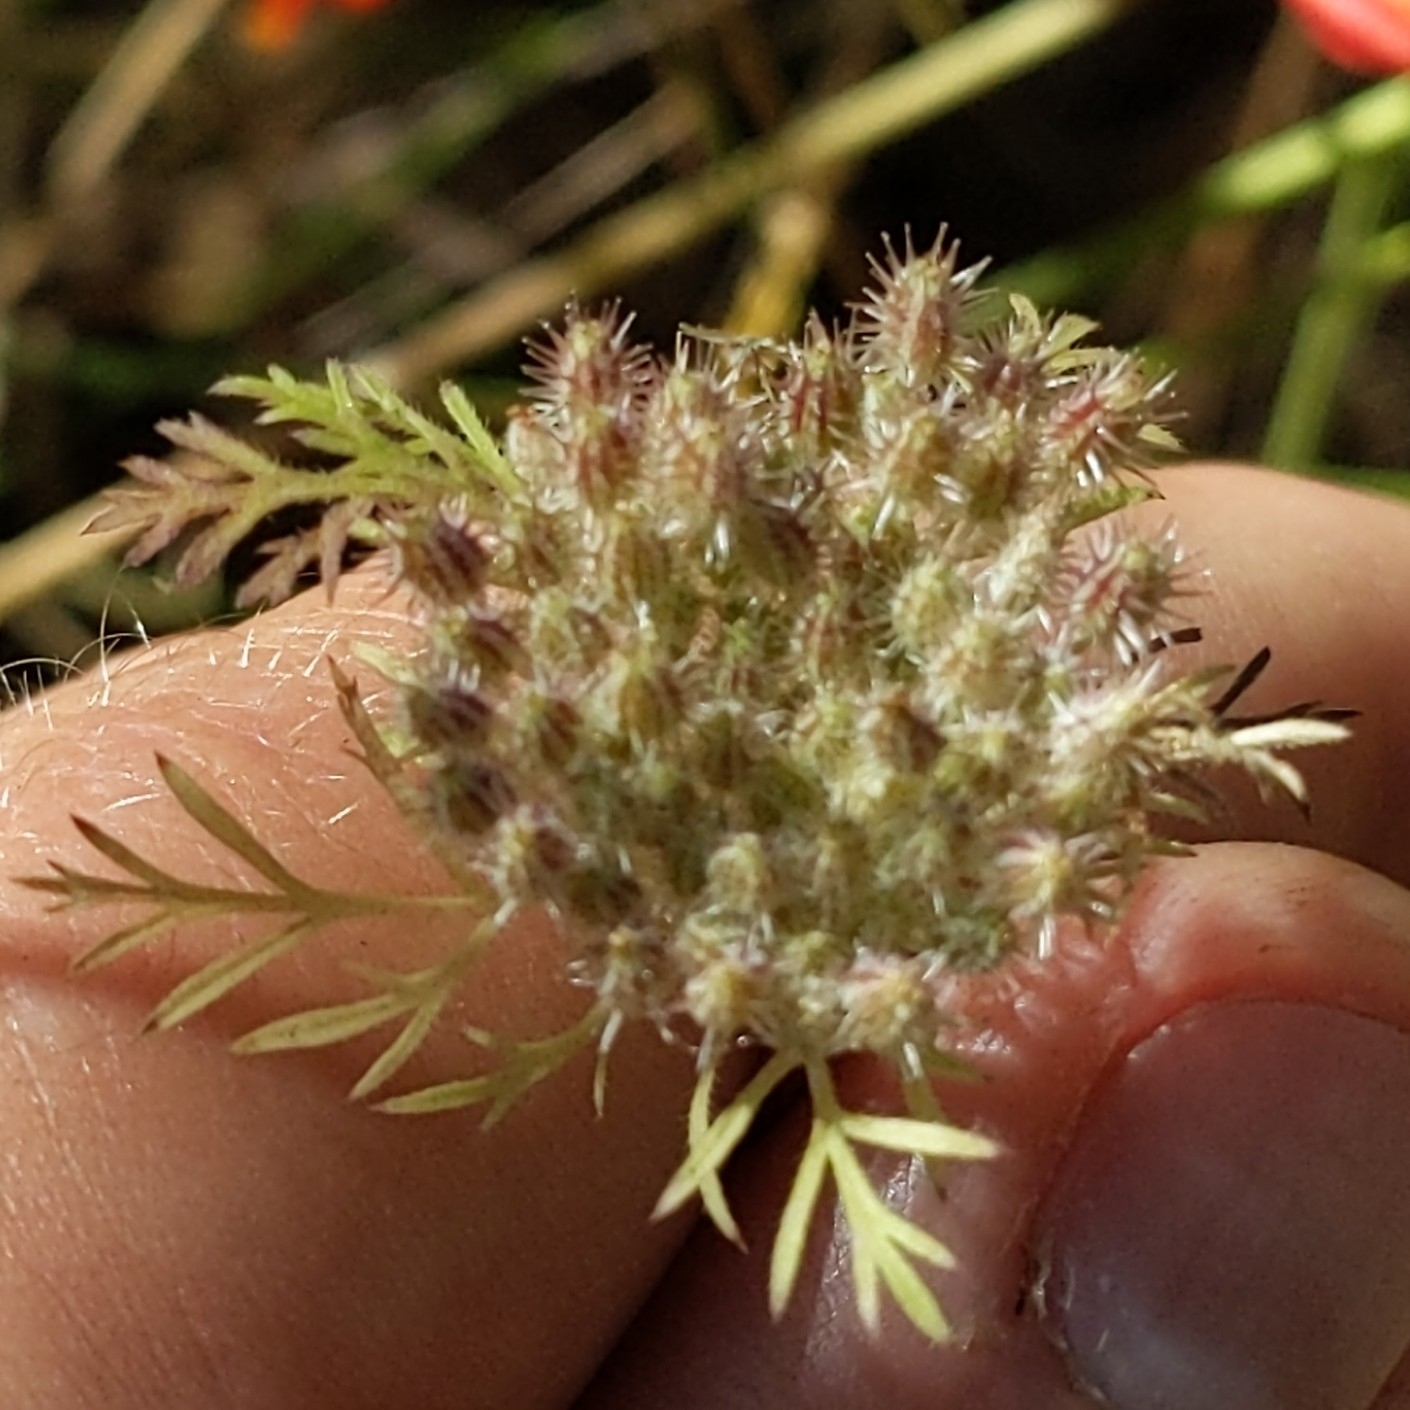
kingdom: Plantae
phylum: Tracheophyta
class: Magnoliopsida
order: Apiales
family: Apiaceae
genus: Daucus
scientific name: Daucus pusillus
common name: Southwest wild carrot
